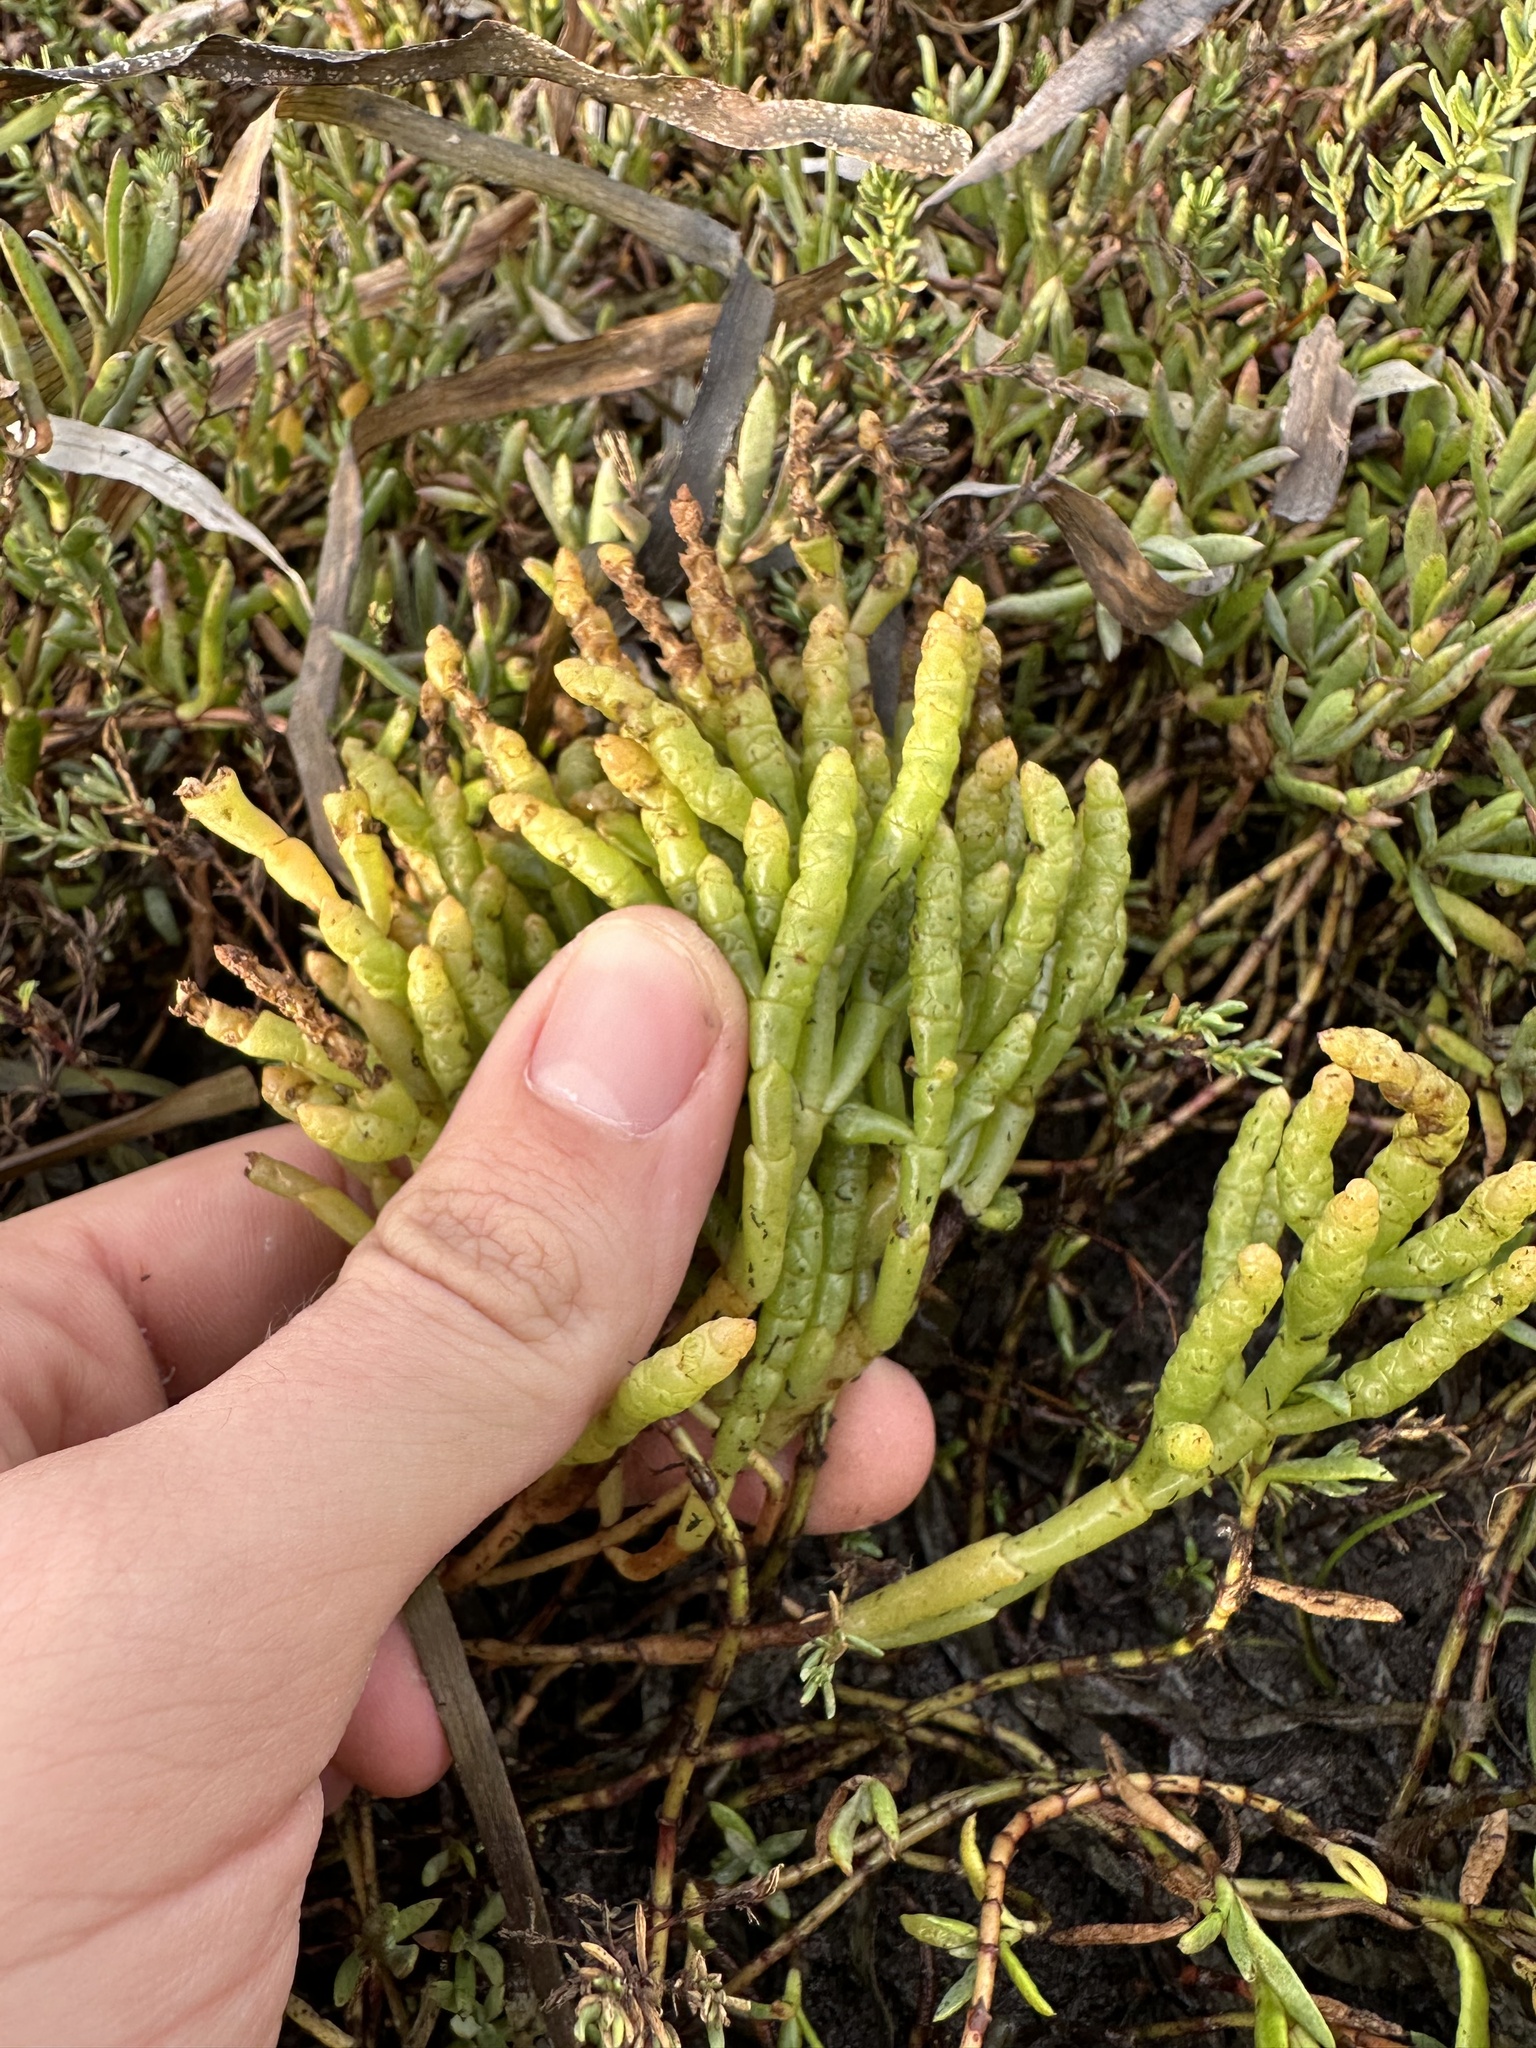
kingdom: Plantae
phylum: Tracheophyta
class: Magnoliopsida
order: Caryophyllales
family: Amaranthaceae
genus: Arthroceras
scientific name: Arthroceras subterminale
